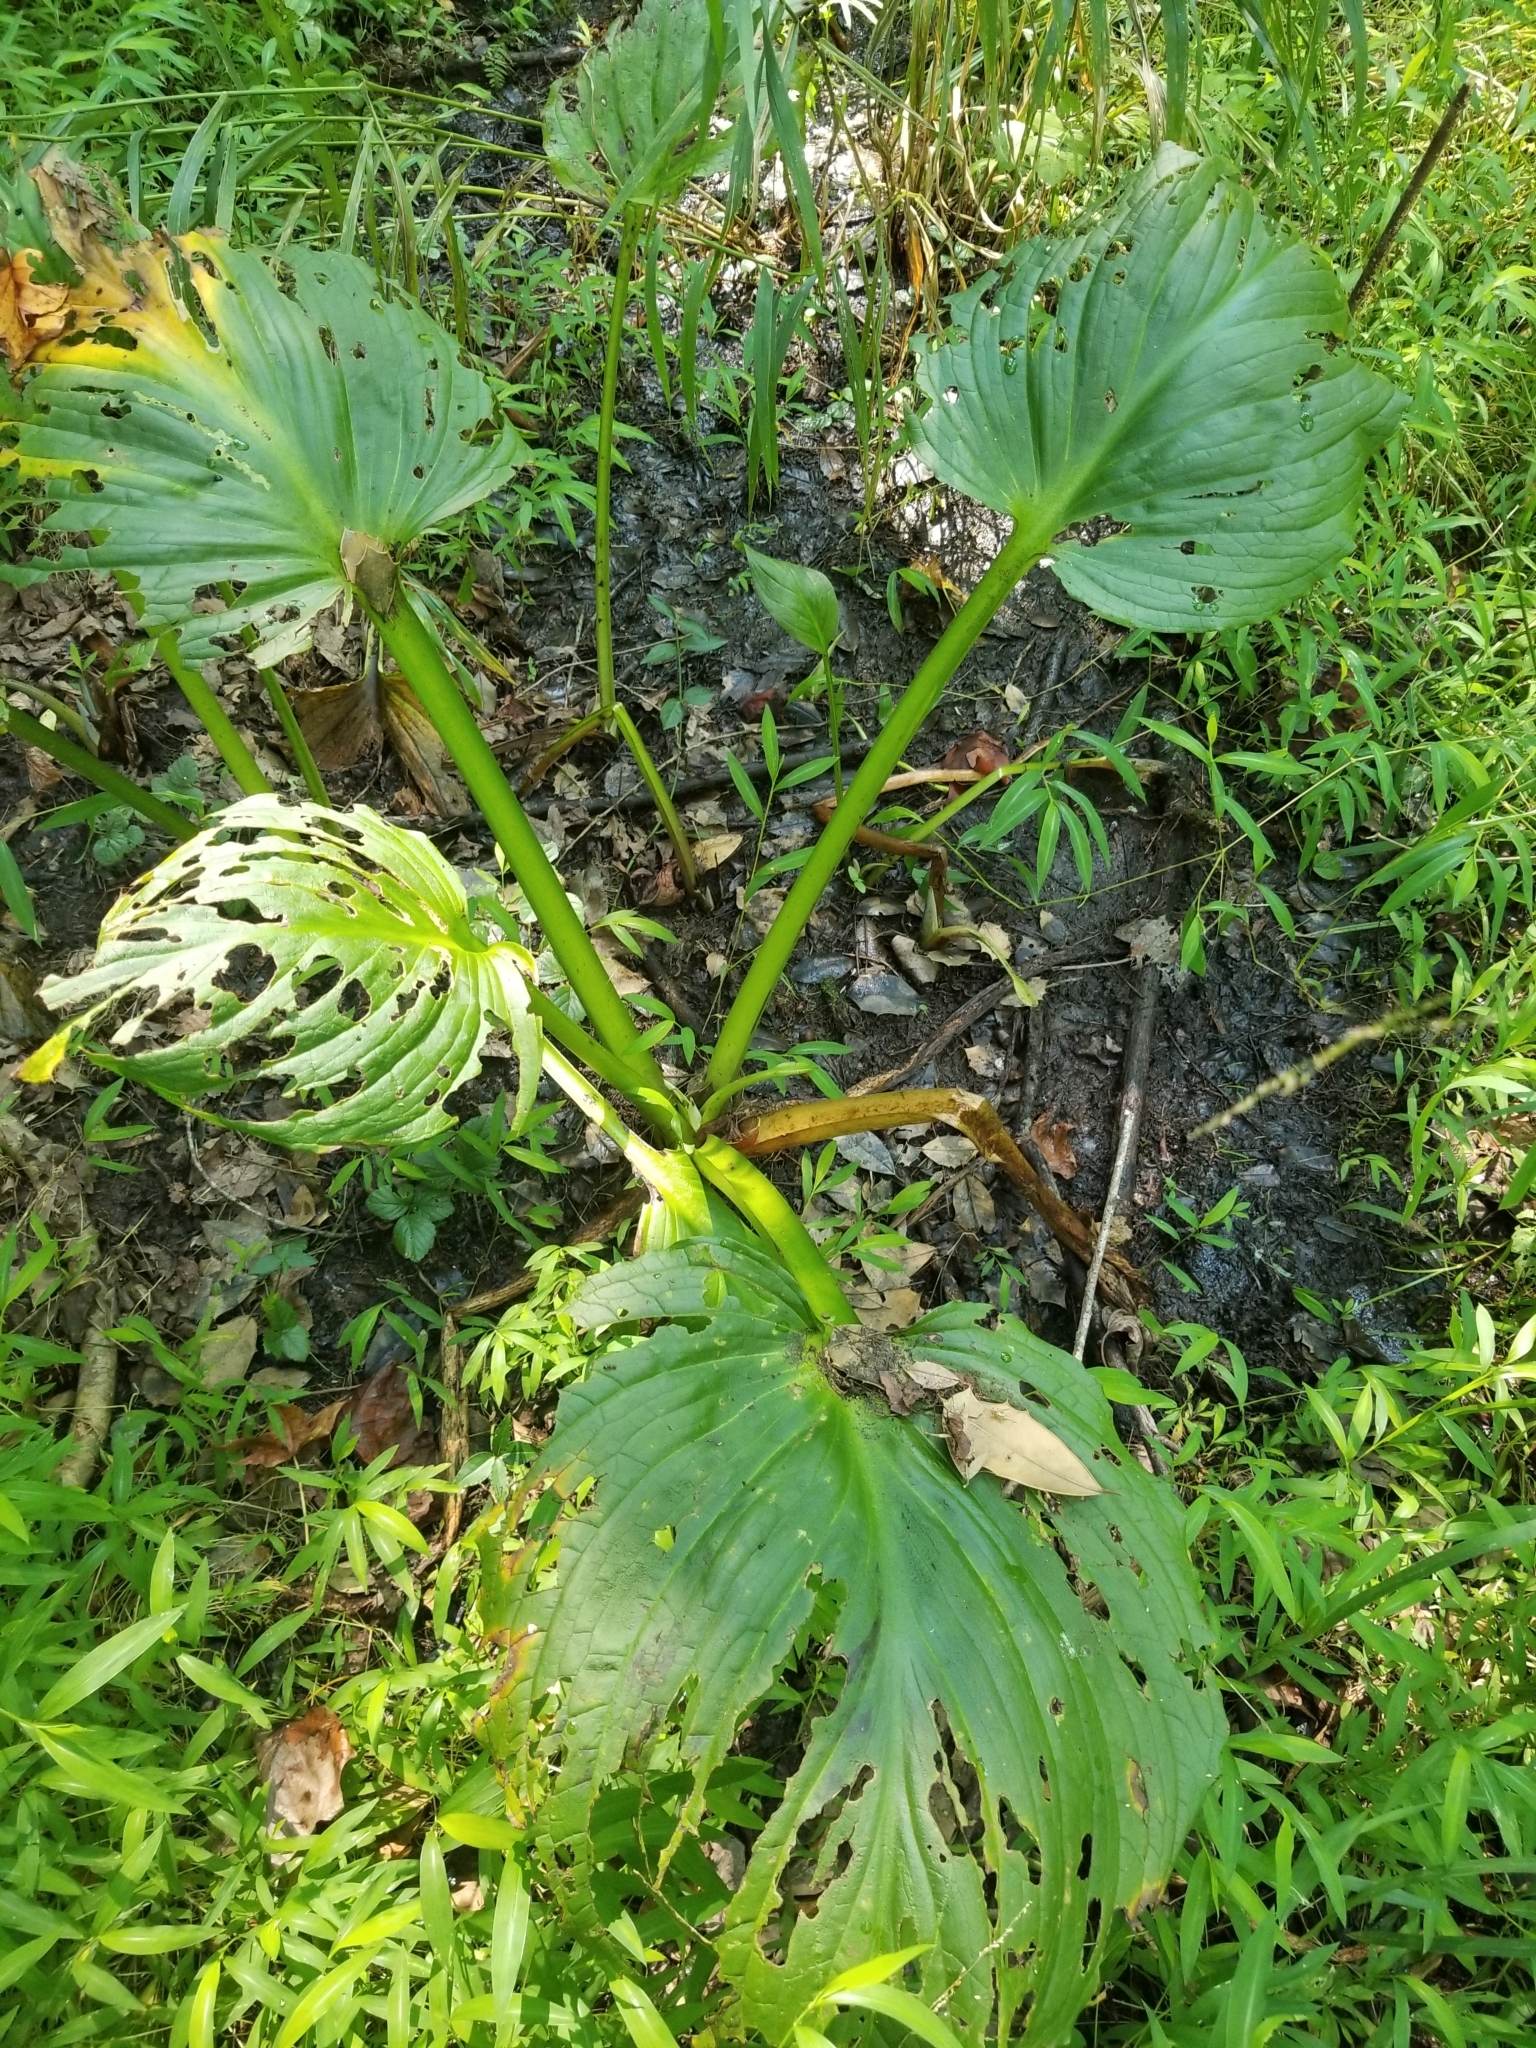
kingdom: Plantae
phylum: Tracheophyta
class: Liliopsida
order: Alismatales
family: Araceae
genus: Symplocarpus
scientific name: Symplocarpus foetidus
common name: Eastern skunk cabbage
